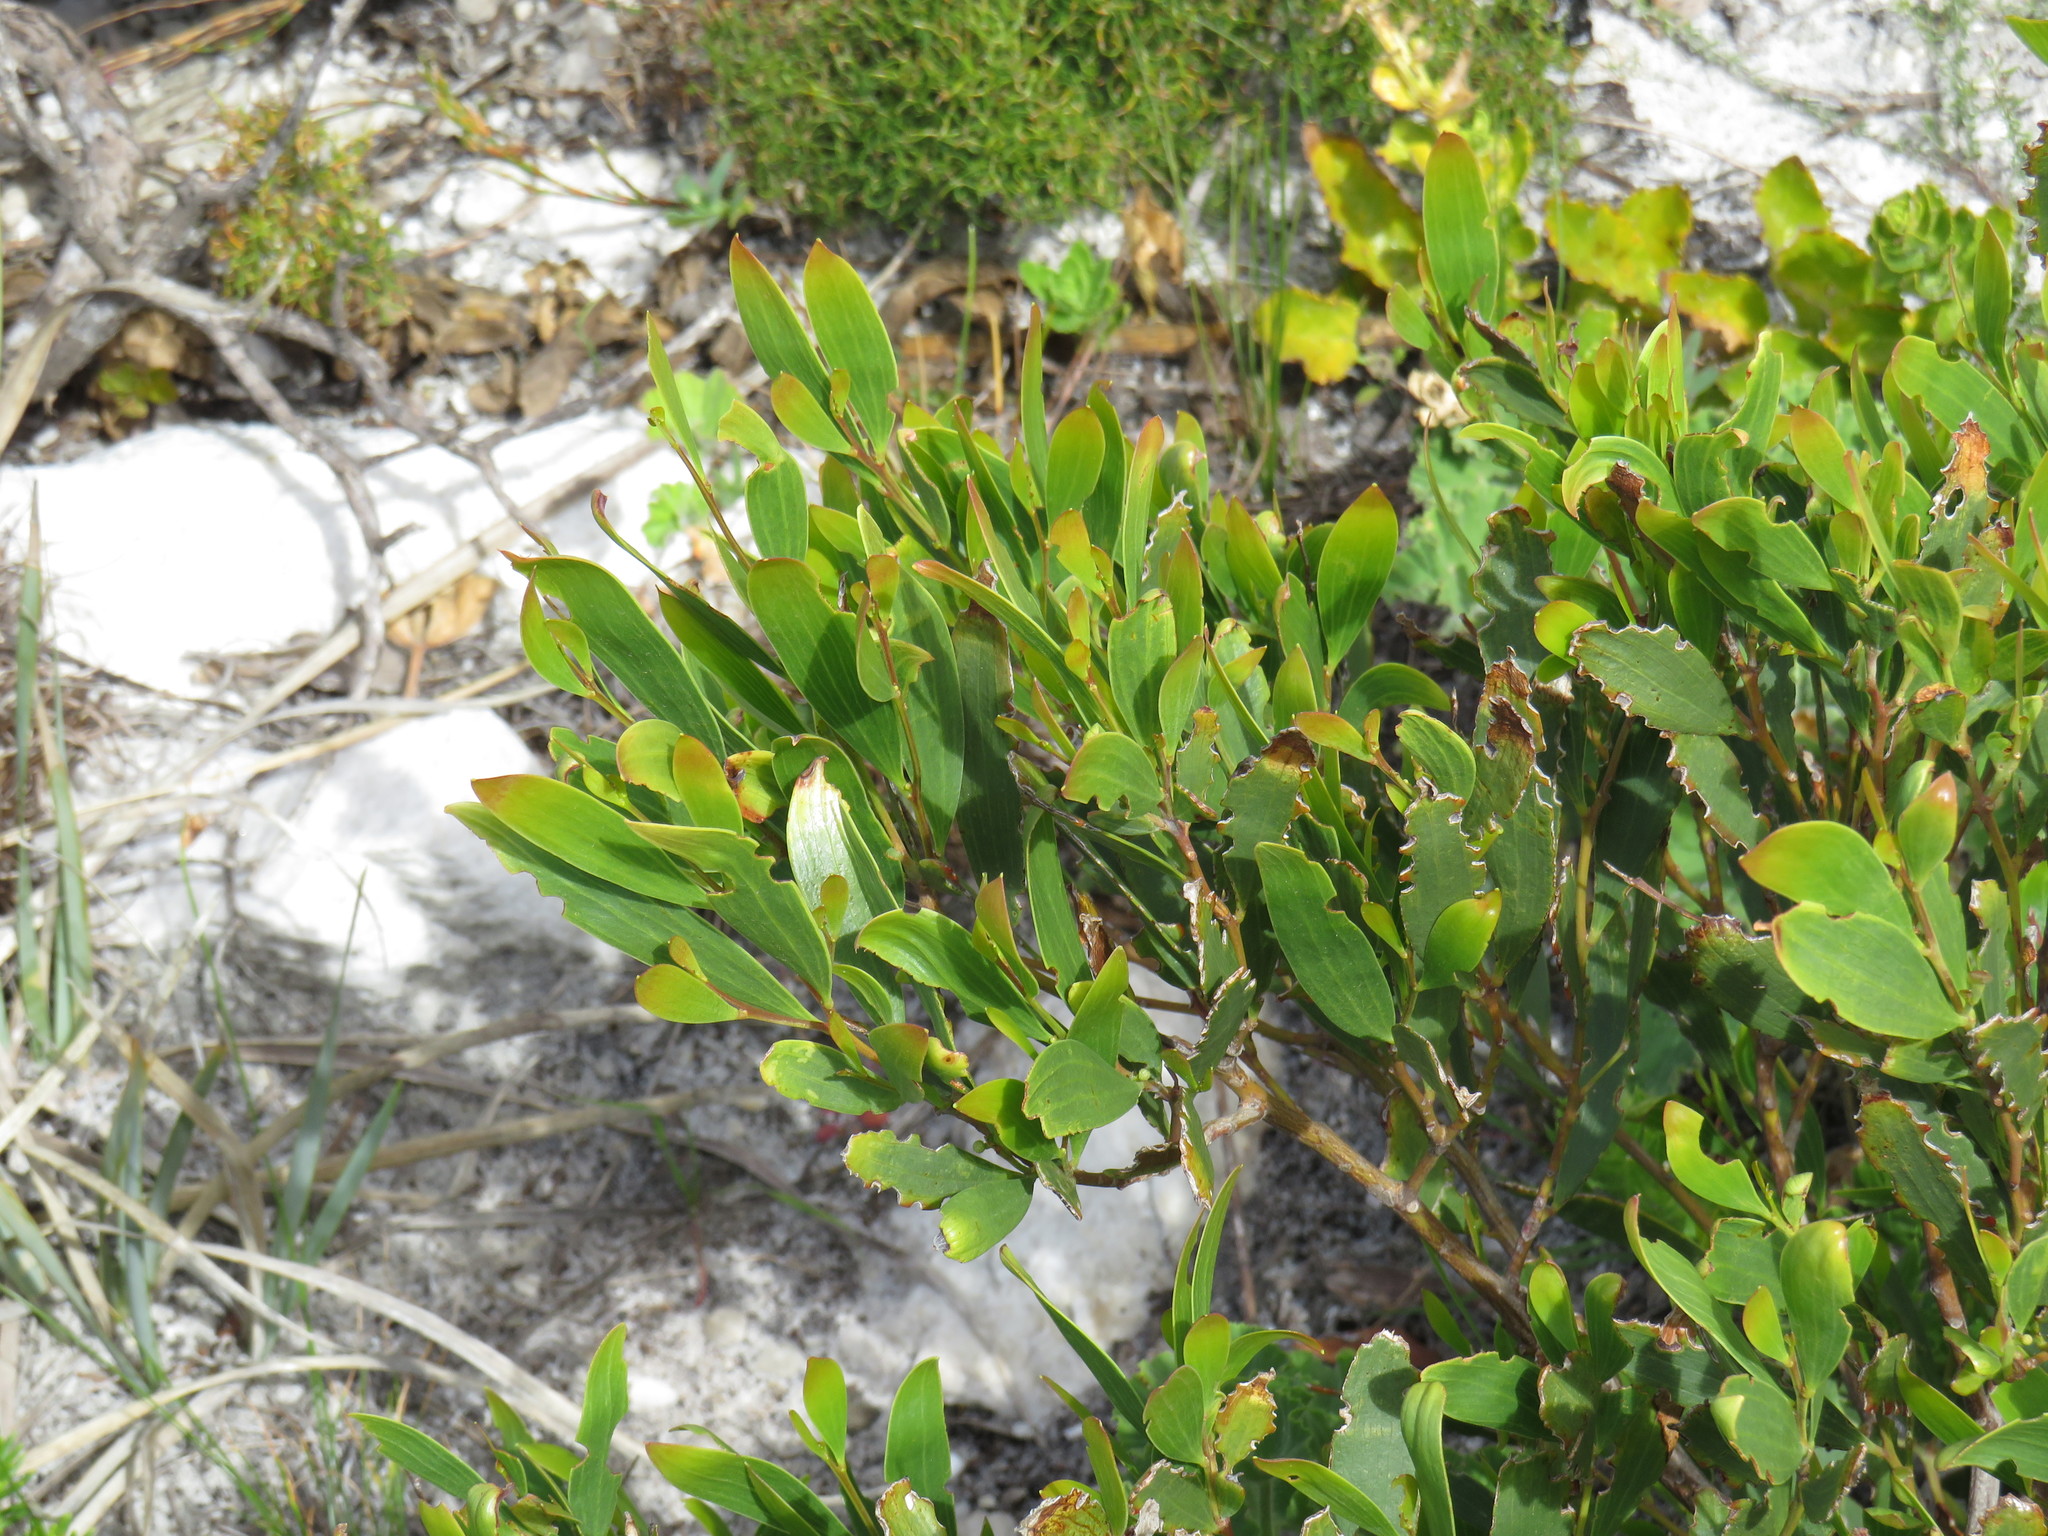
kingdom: Plantae
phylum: Tracheophyta
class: Magnoliopsida
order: Fabales
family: Fabaceae
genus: Acacia
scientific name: Acacia cyclops
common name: Coastal wattle
